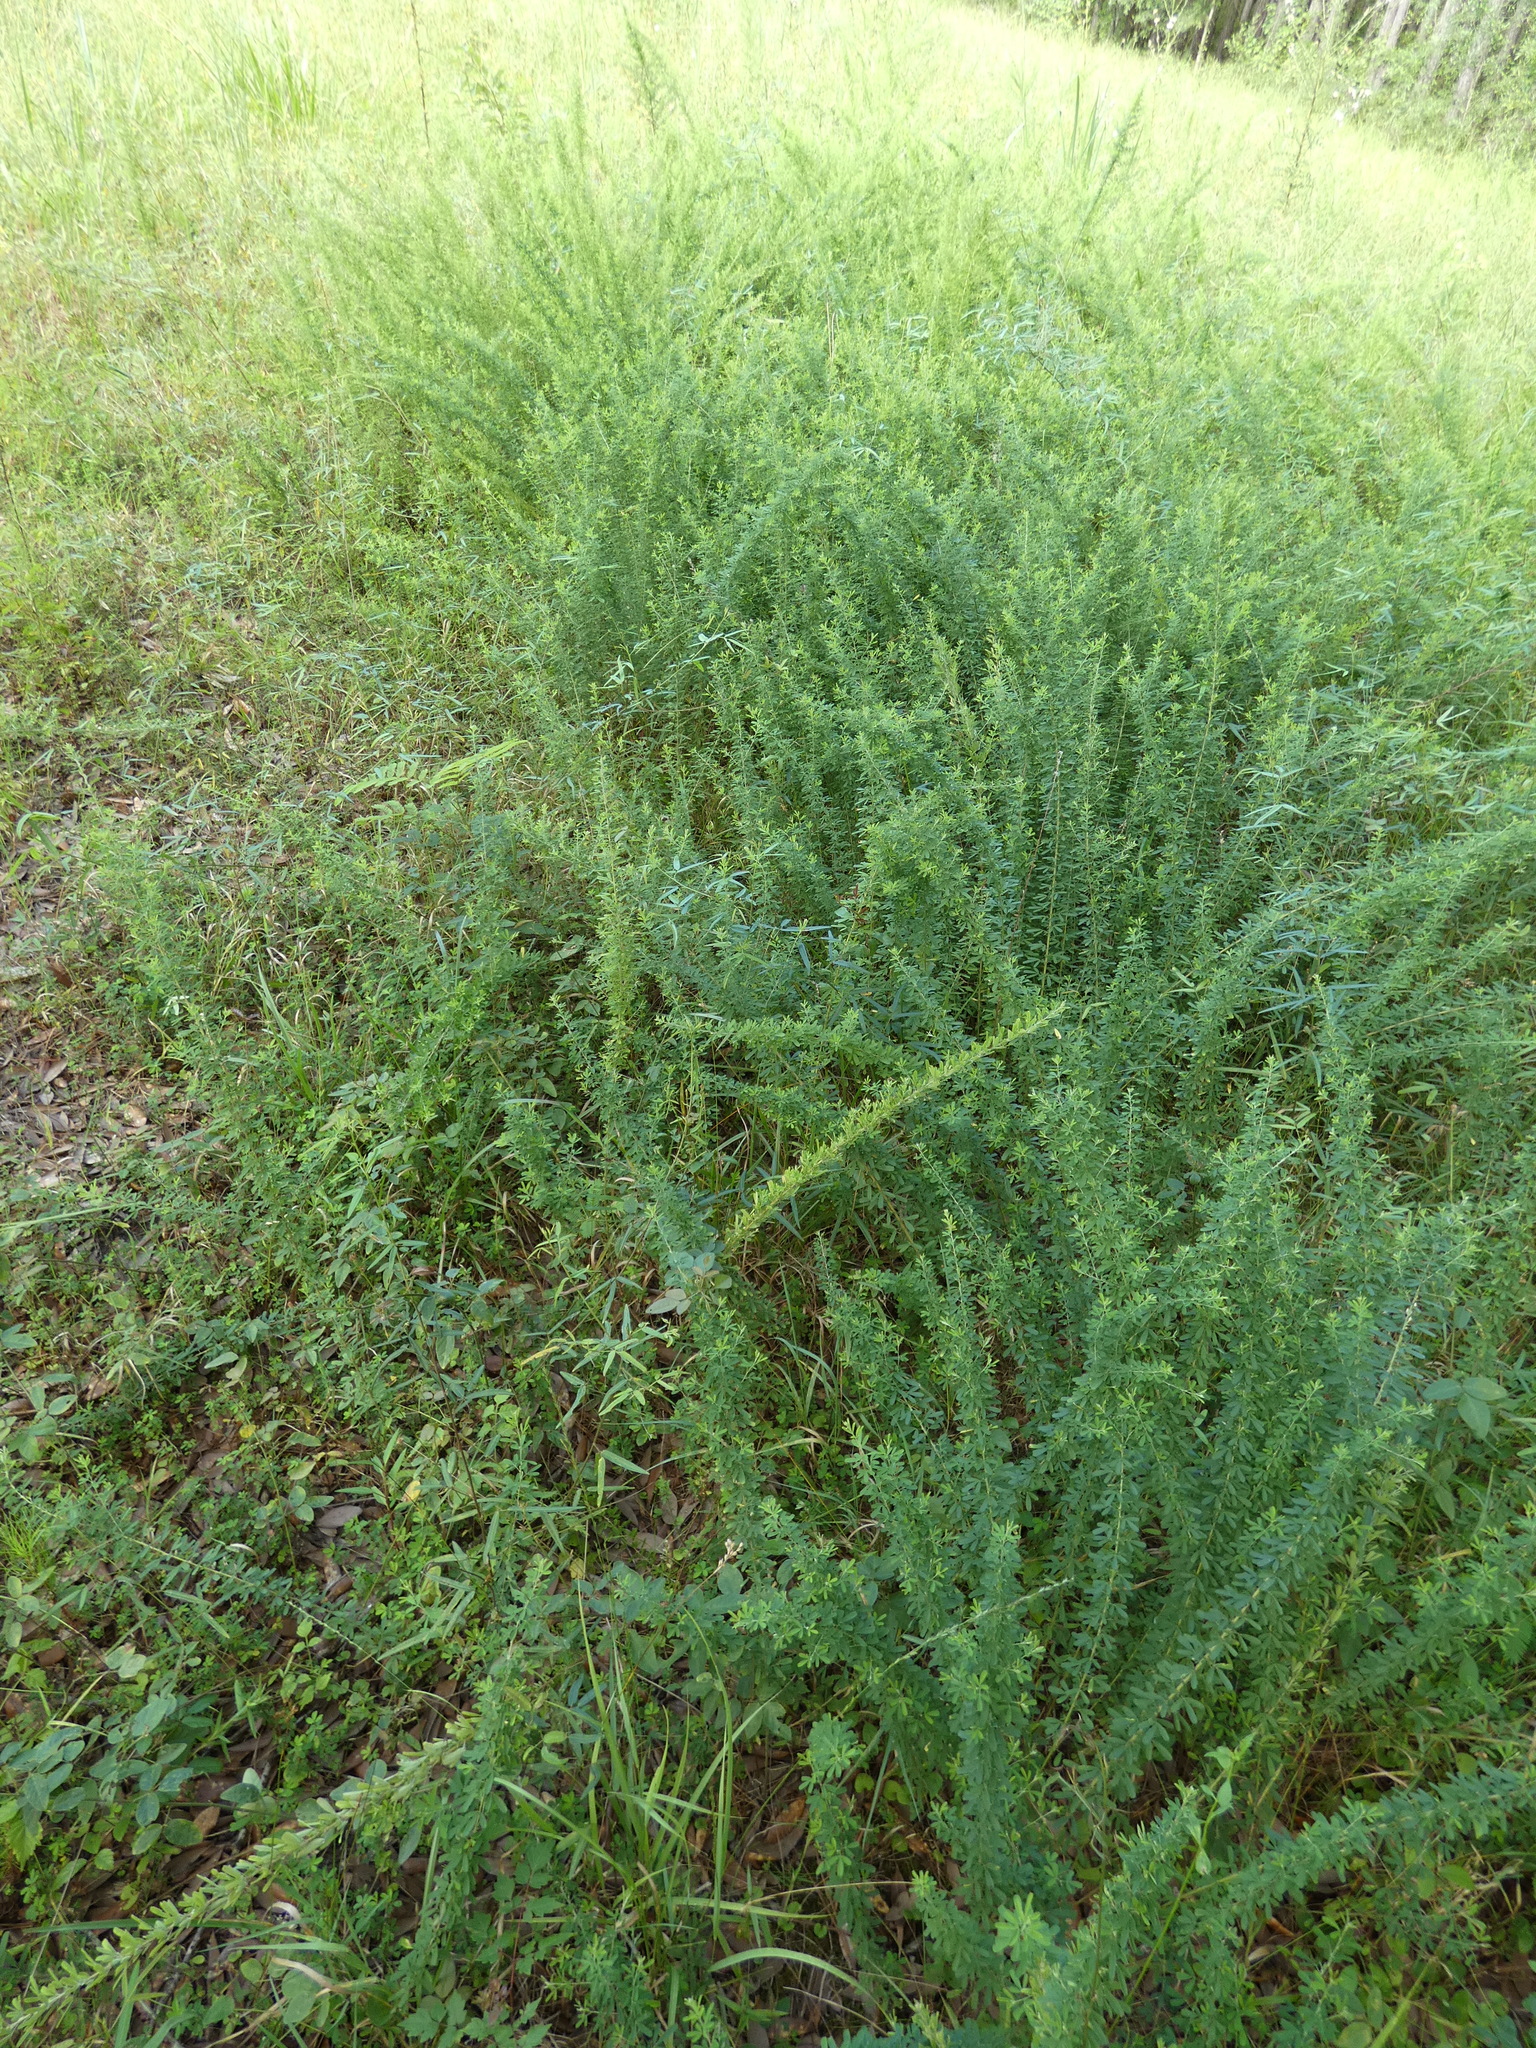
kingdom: Plantae
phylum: Tracheophyta
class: Magnoliopsida
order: Fabales
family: Fabaceae
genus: Lespedeza
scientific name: Lespedeza cuneata
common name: Chinese bush-clover
